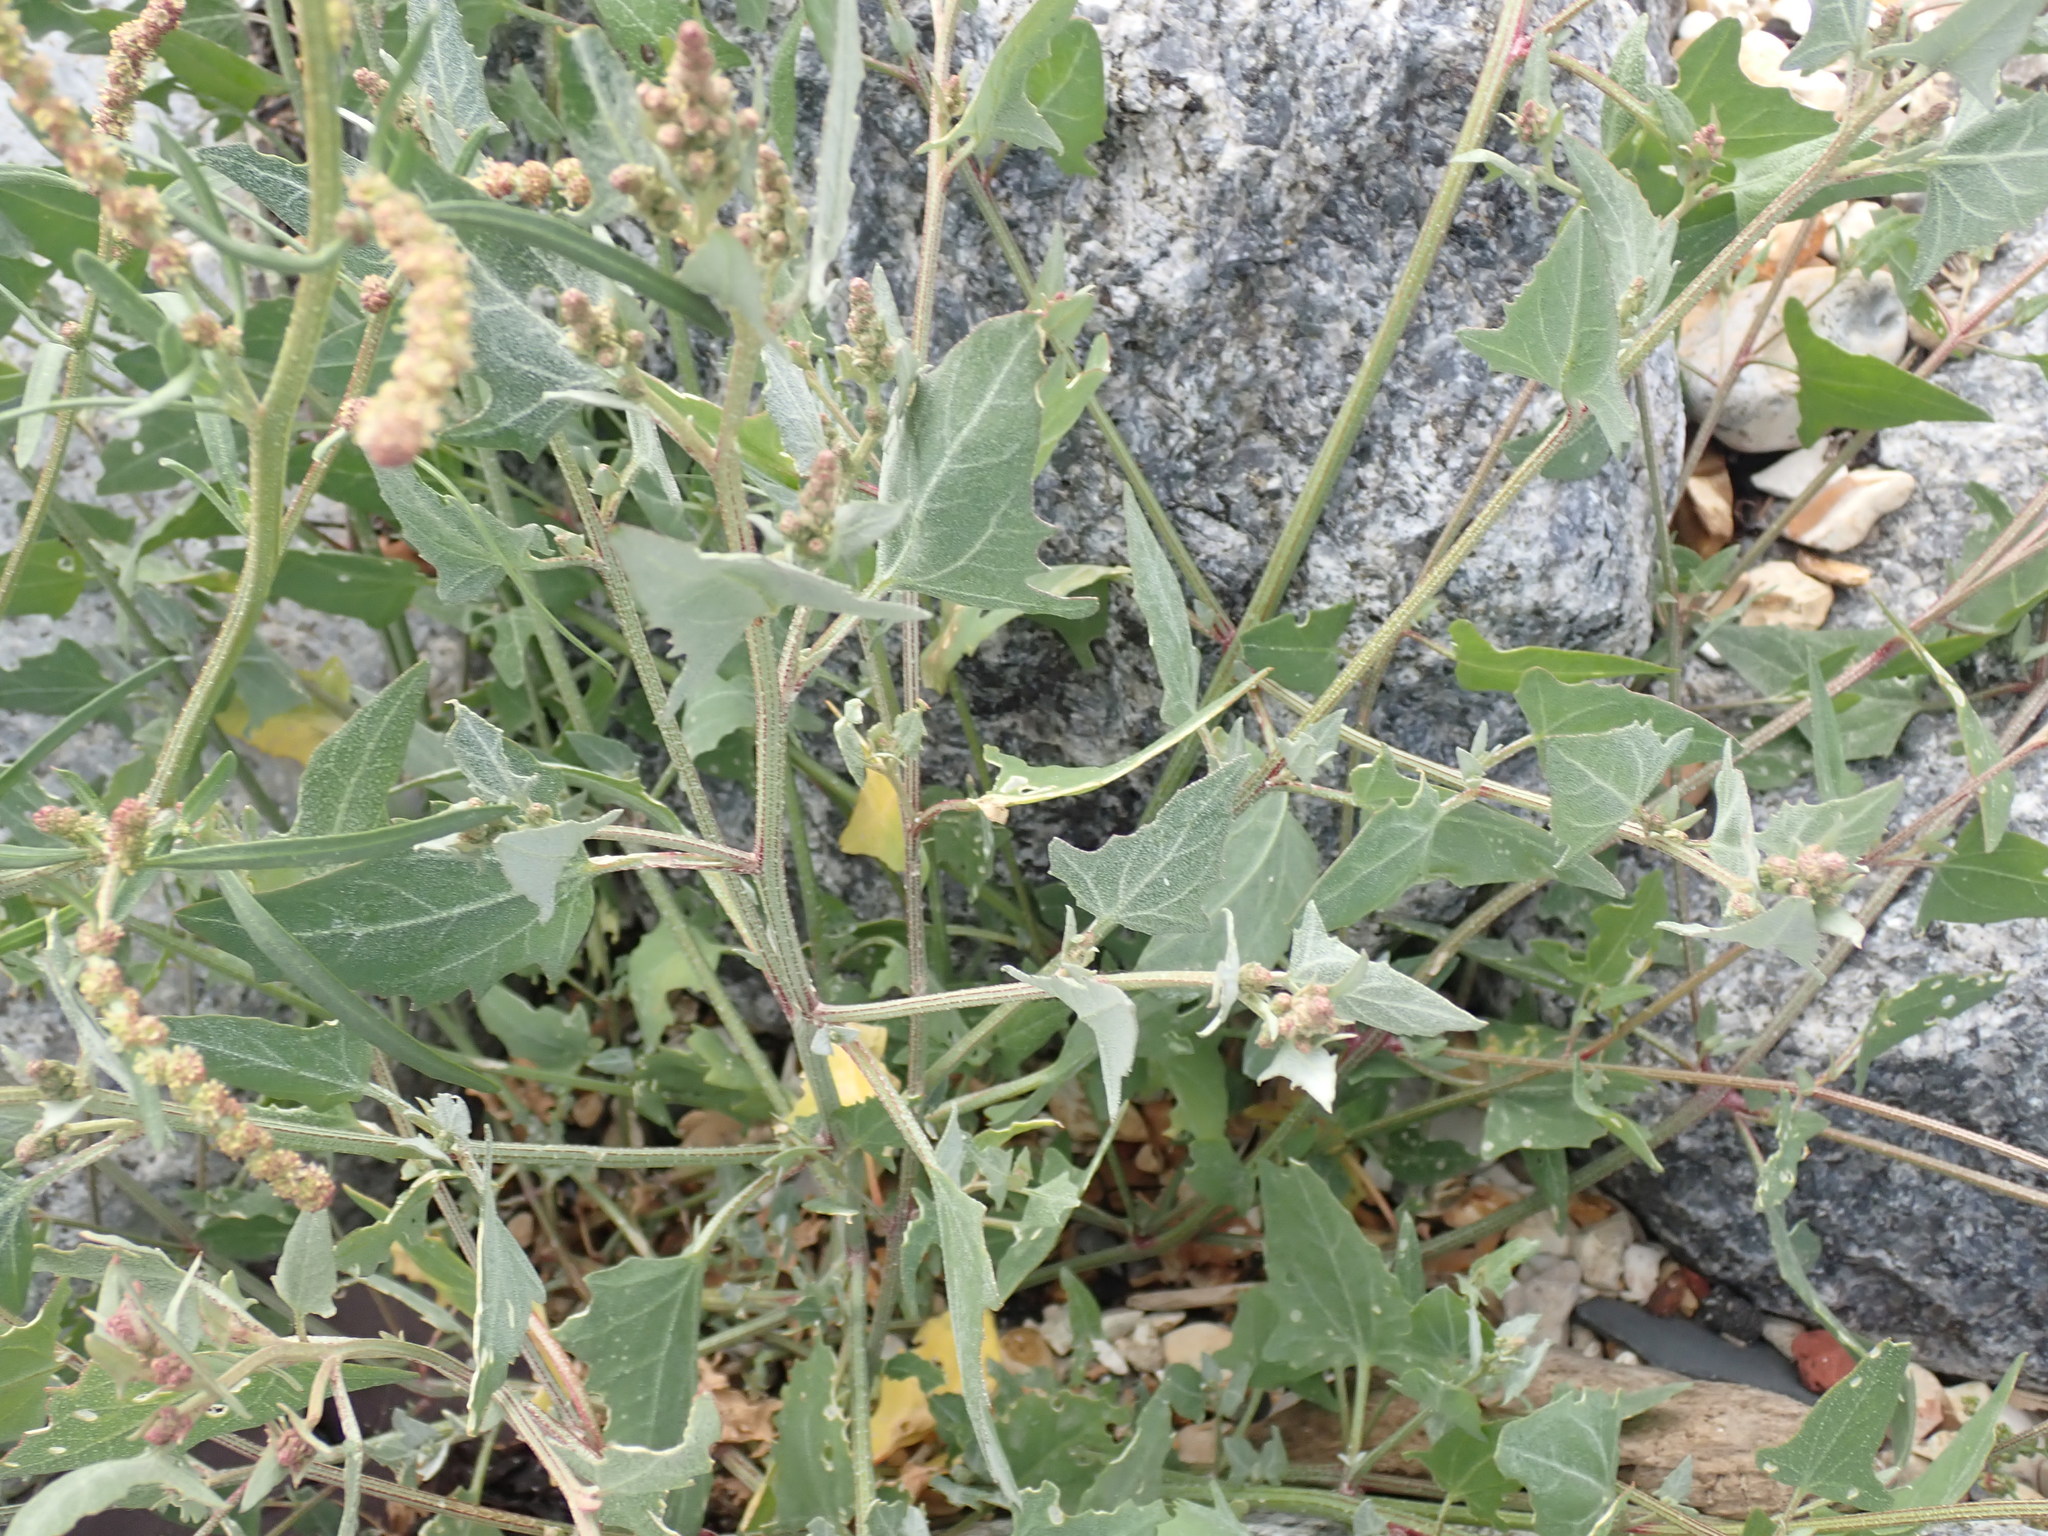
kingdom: Plantae
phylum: Tracheophyta
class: Magnoliopsida
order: Caryophyllales
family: Amaranthaceae
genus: Atriplex
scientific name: Atriplex prostrata
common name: Spear-leaved orache
